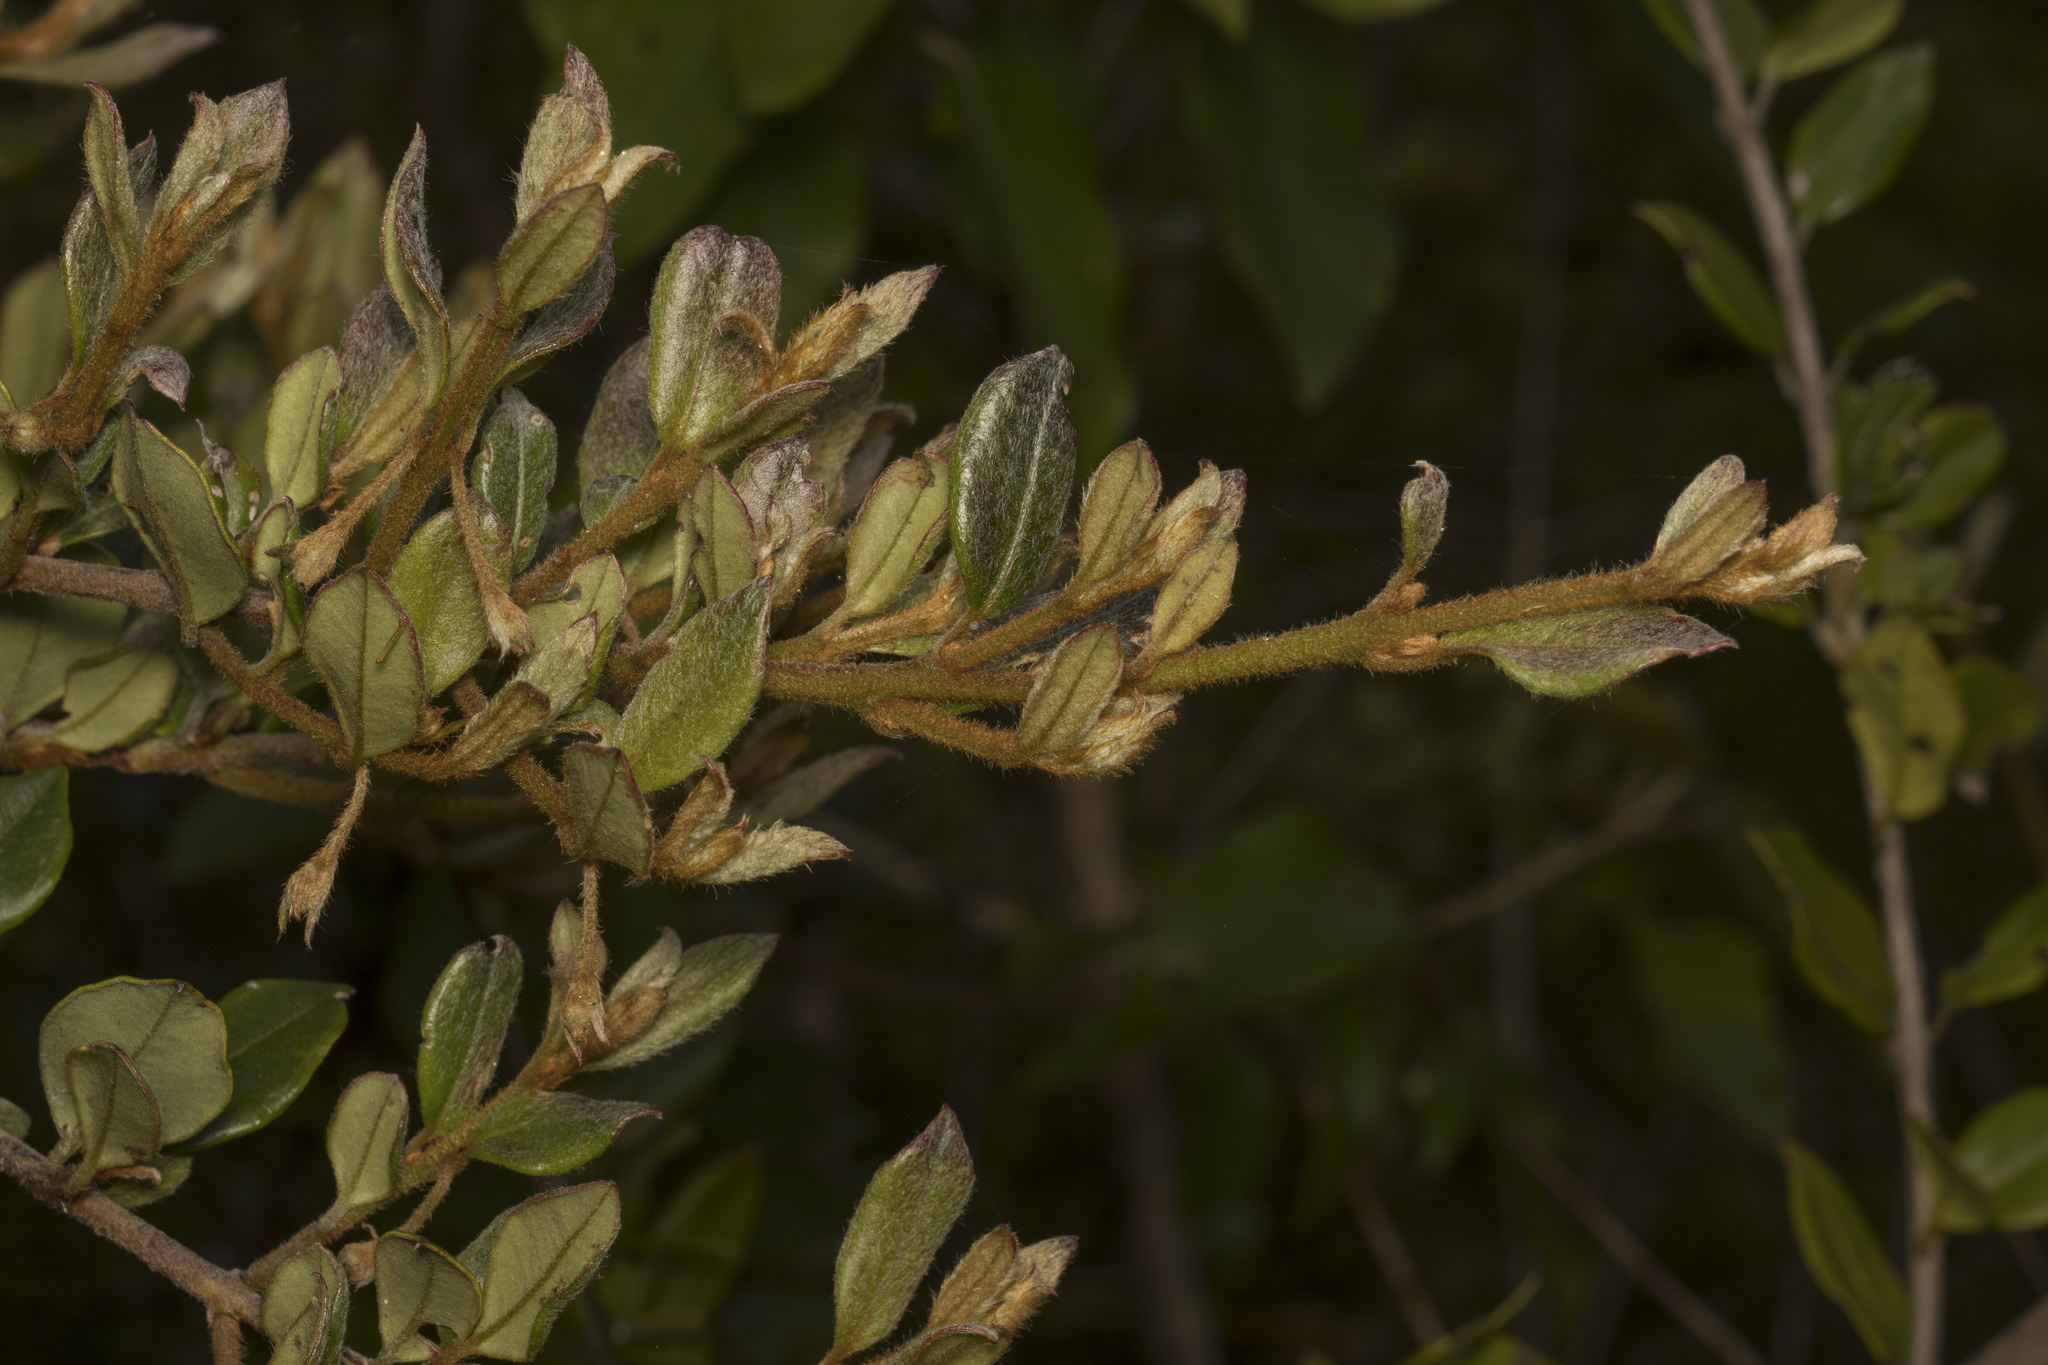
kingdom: Plantae
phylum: Tracheophyta
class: Magnoliopsida
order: Myrtales
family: Myrtaceae
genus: Ugni
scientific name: Ugni candollei
